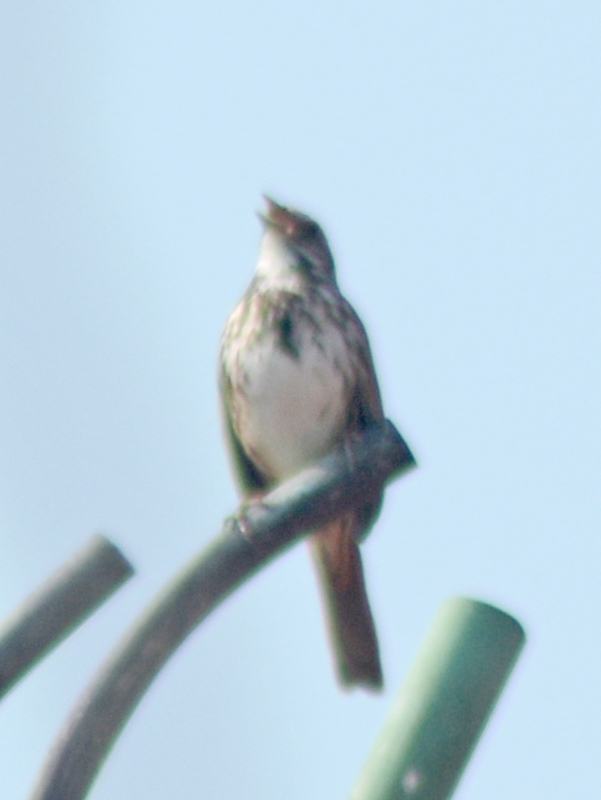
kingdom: Animalia
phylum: Chordata
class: Aves
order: Passeriformes
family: Passerellidae
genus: Melospiza
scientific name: Melospiza melodia
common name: Song sparrow
